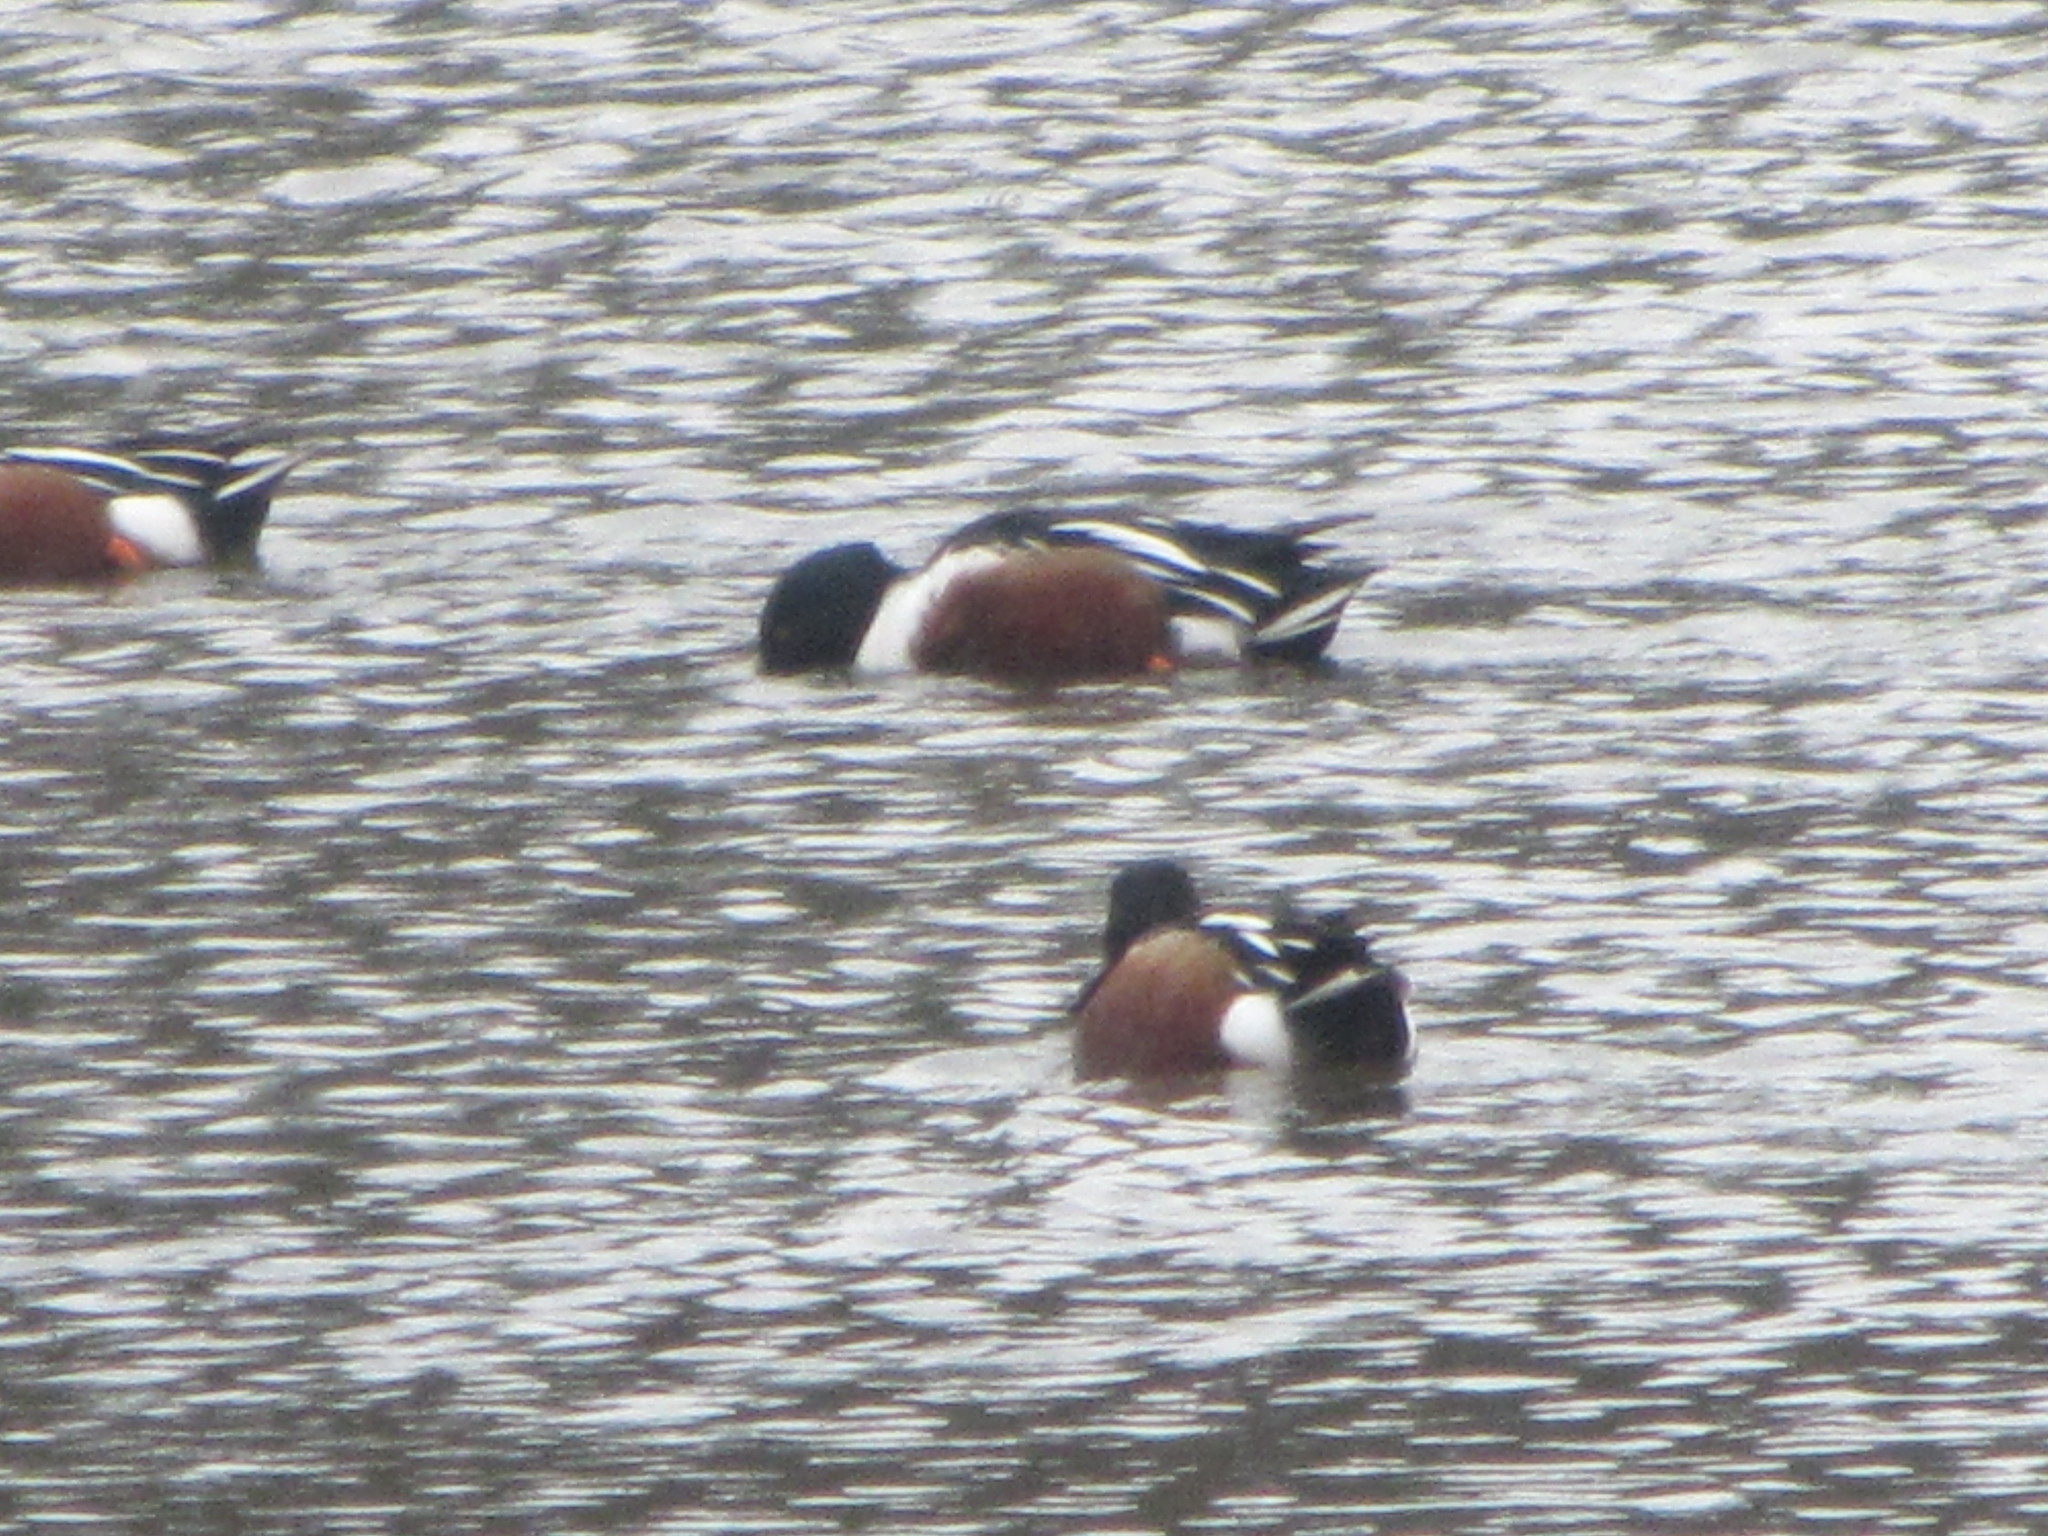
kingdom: Animalia
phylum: Chordata
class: Aves
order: Anseriformes
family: Anatidae
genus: Spatula
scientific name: Spatula clypeata
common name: Northern shoveler
